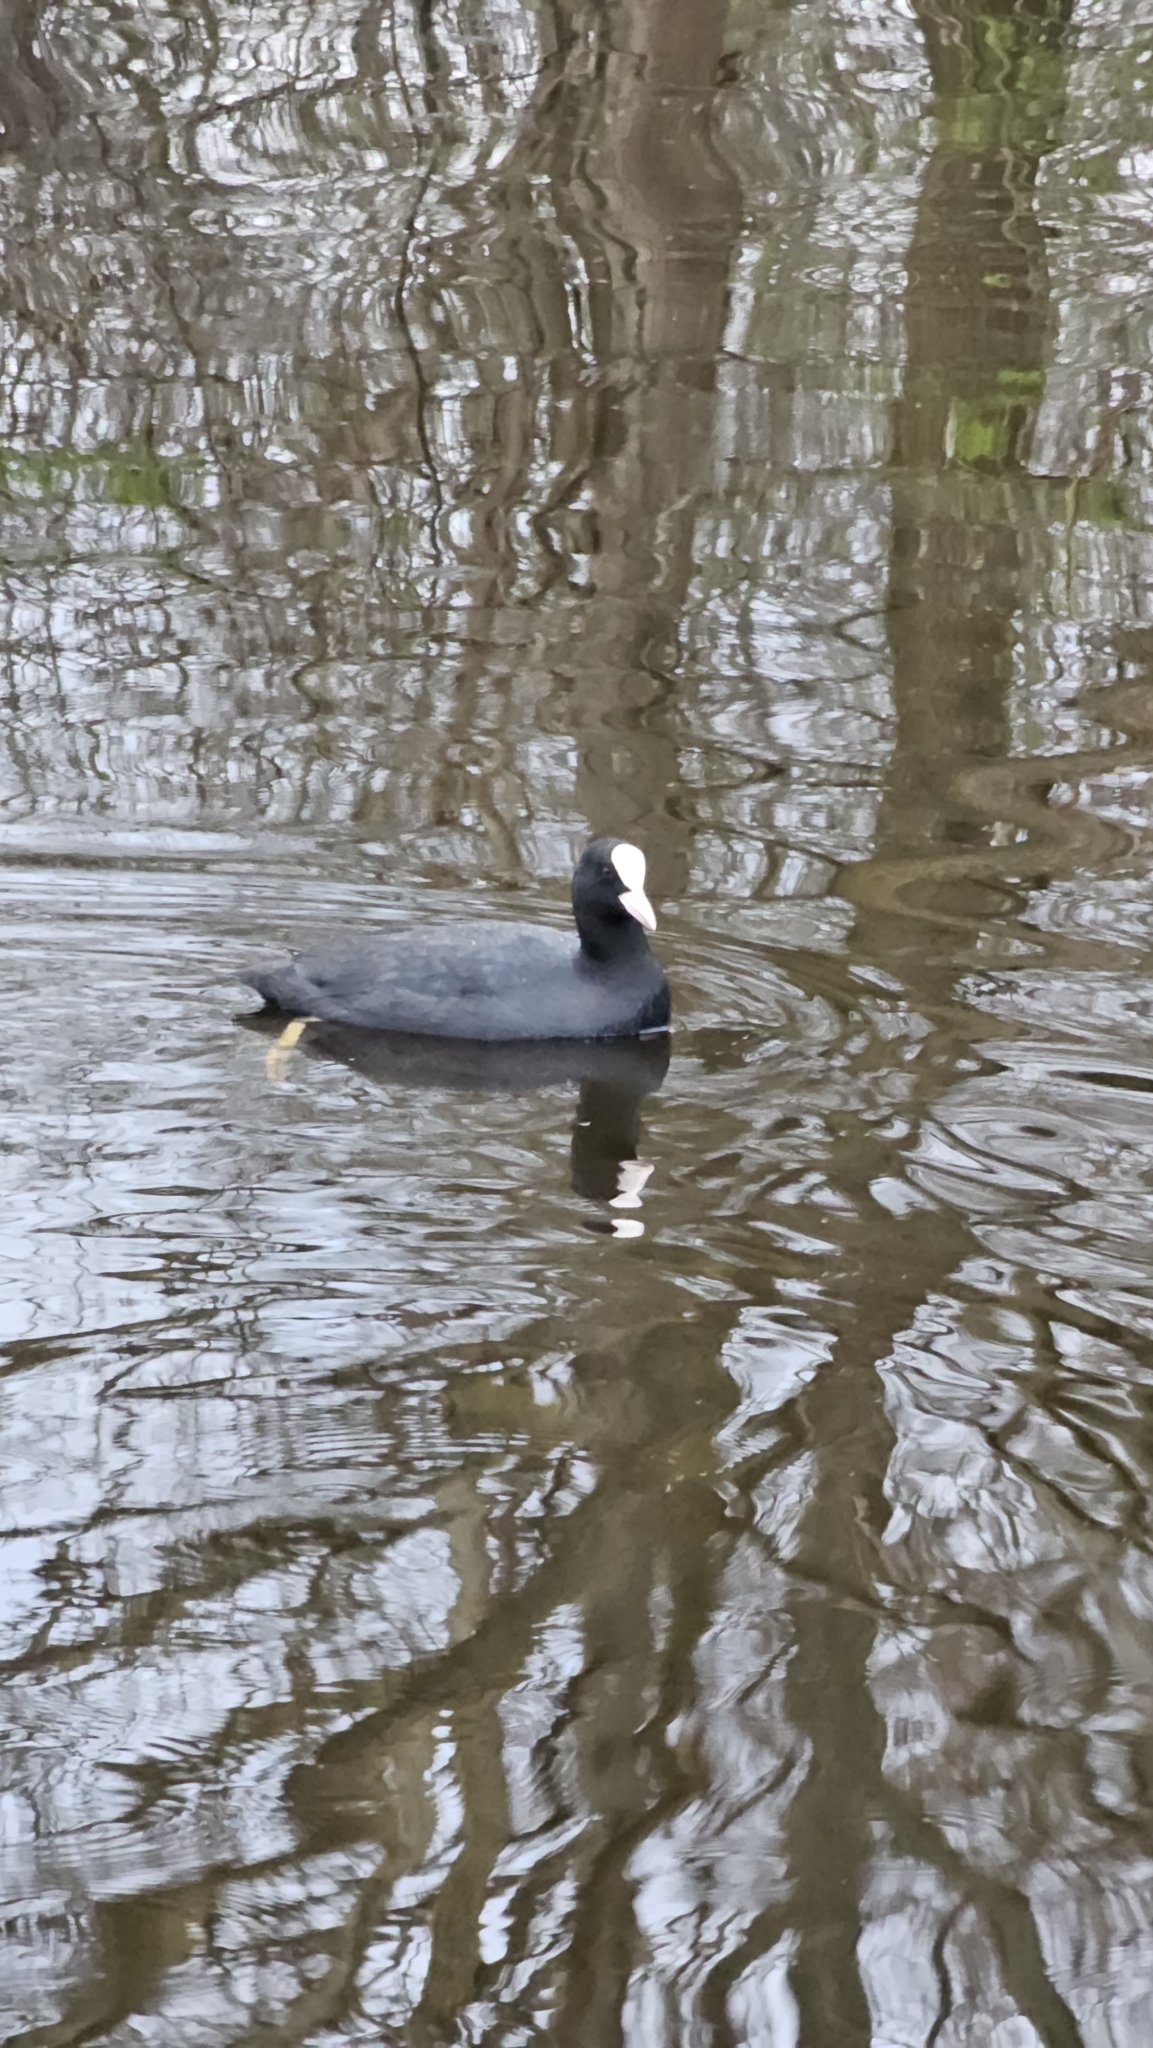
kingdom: Animalia
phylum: Chordata
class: Aves
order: Gruiformes
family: Rallidae
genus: Fulica
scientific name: Fulica atra
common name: Eurasian coot
